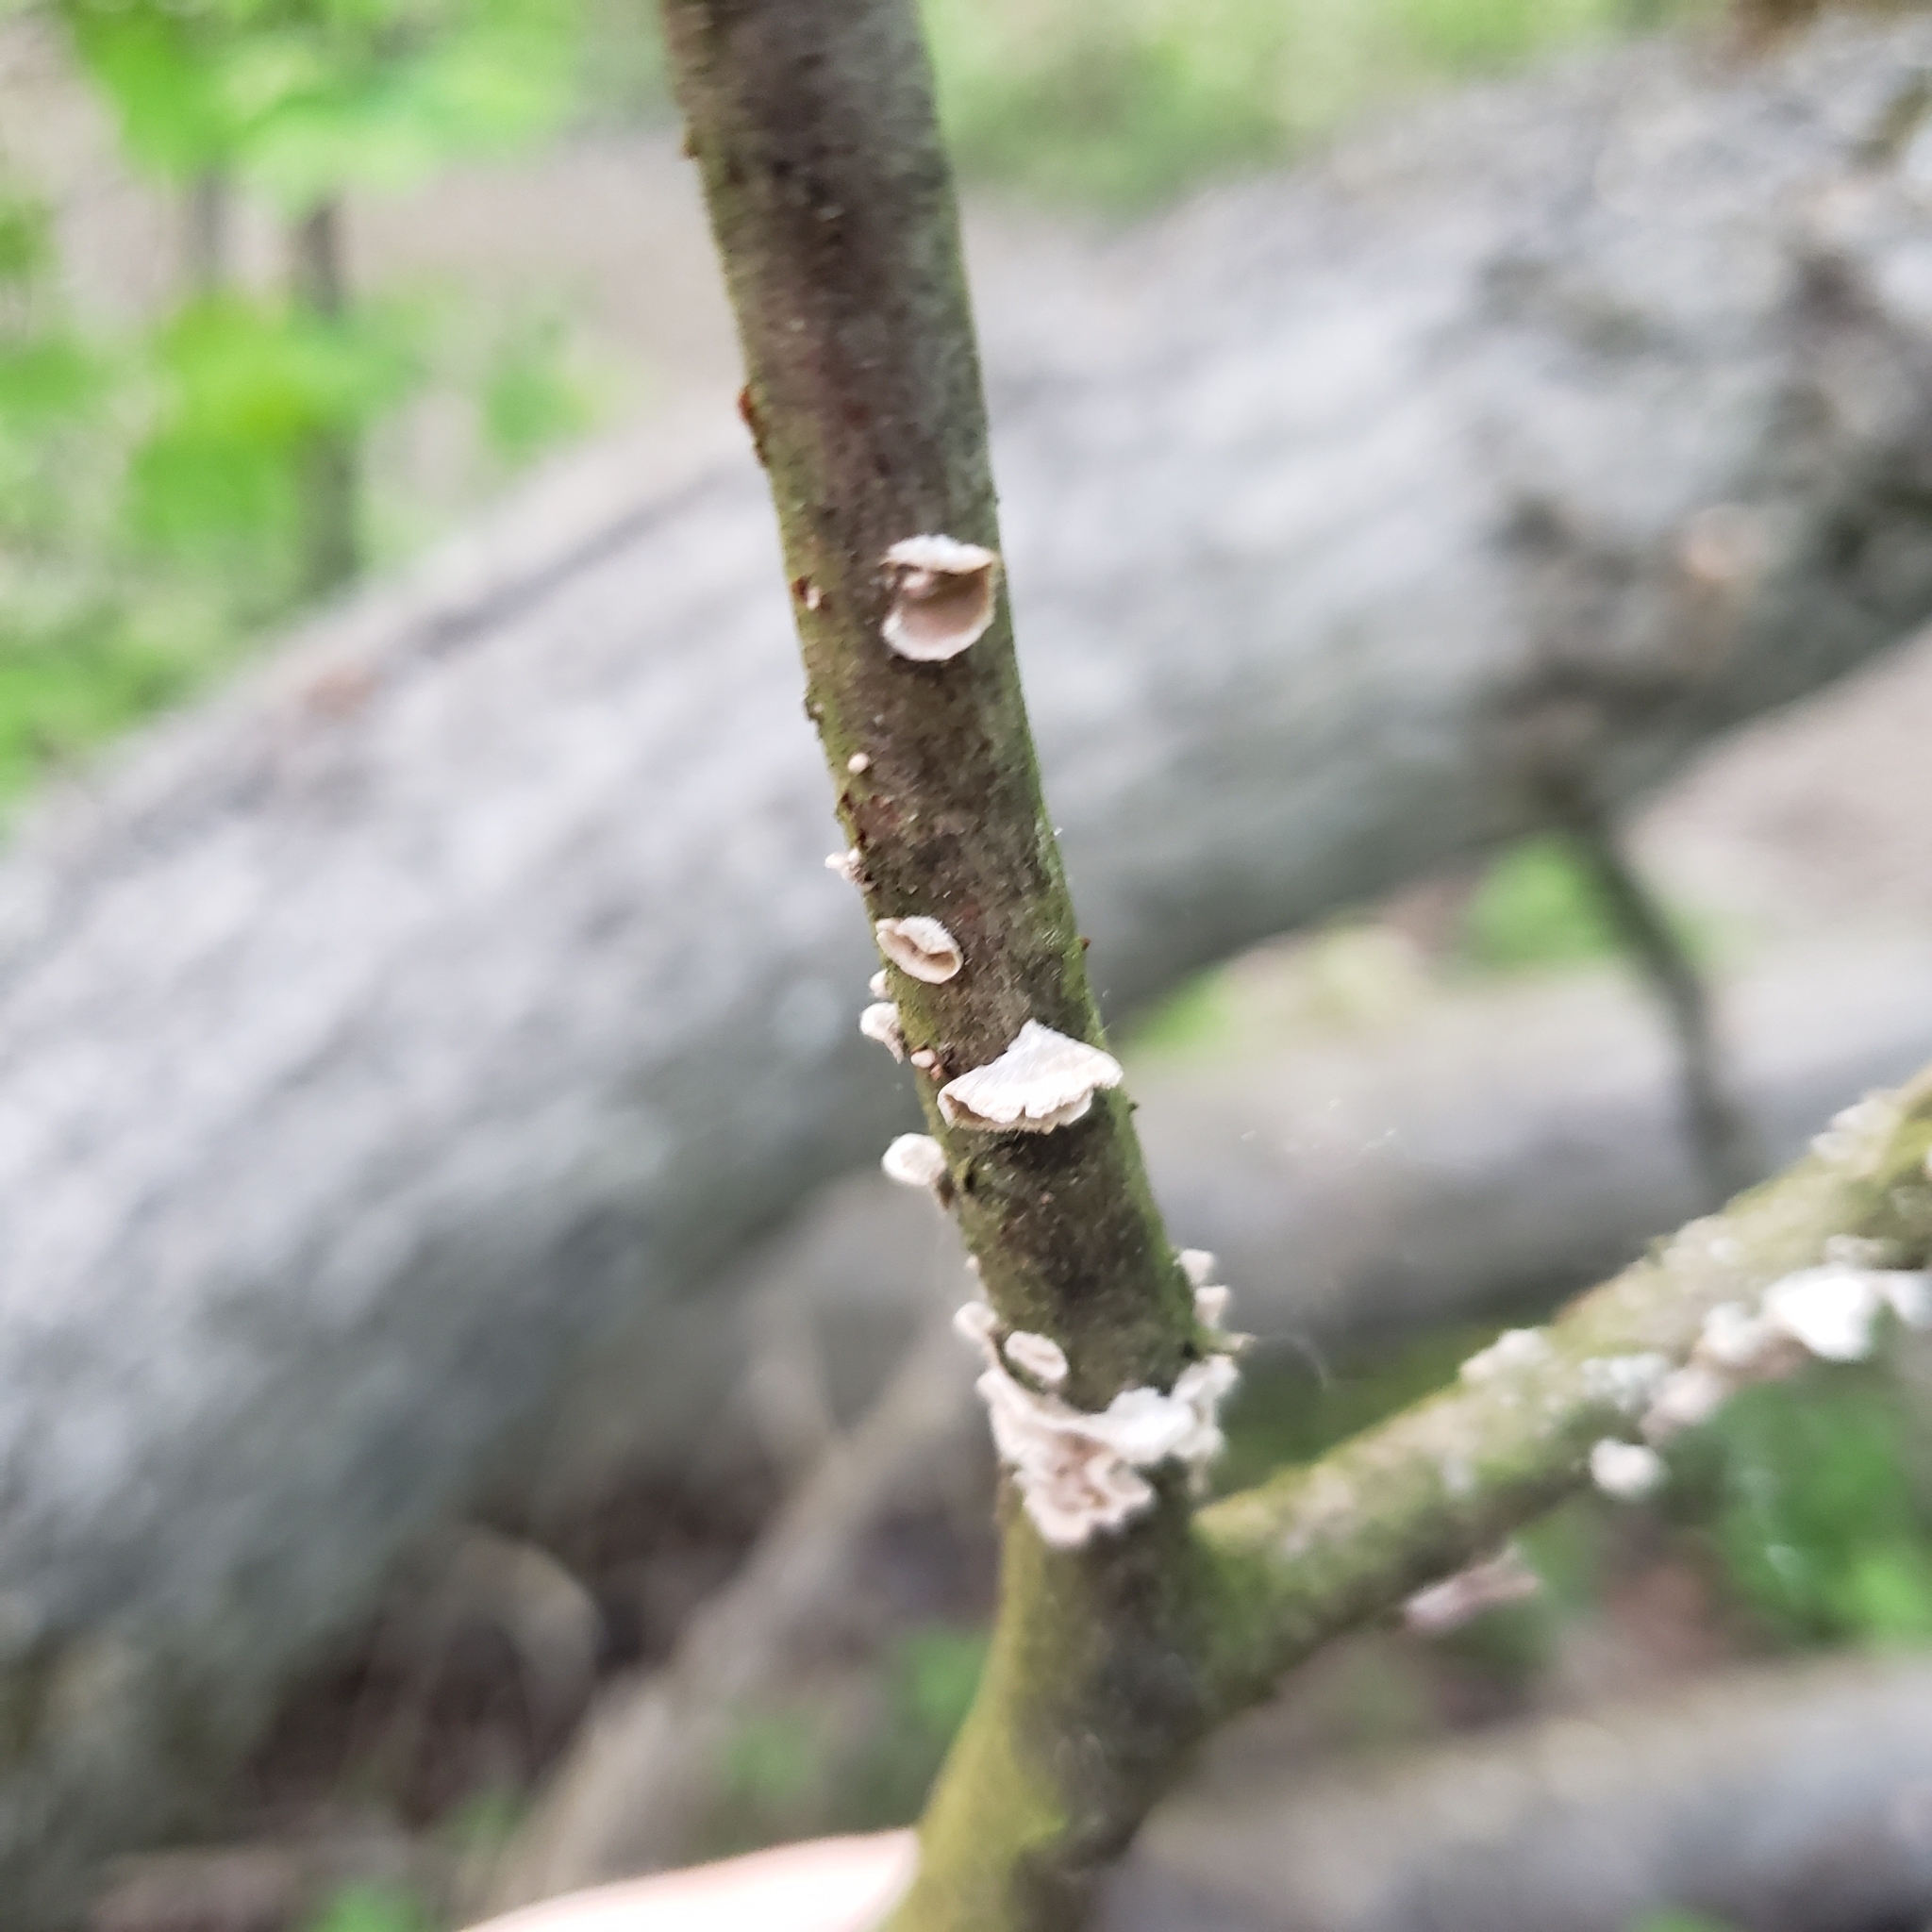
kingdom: Fungi
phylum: Basidiomycota
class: Agaricomycetes
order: Russulales
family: Stereaceae
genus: Stereum
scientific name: Stereum striatum
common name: Silky parchment
